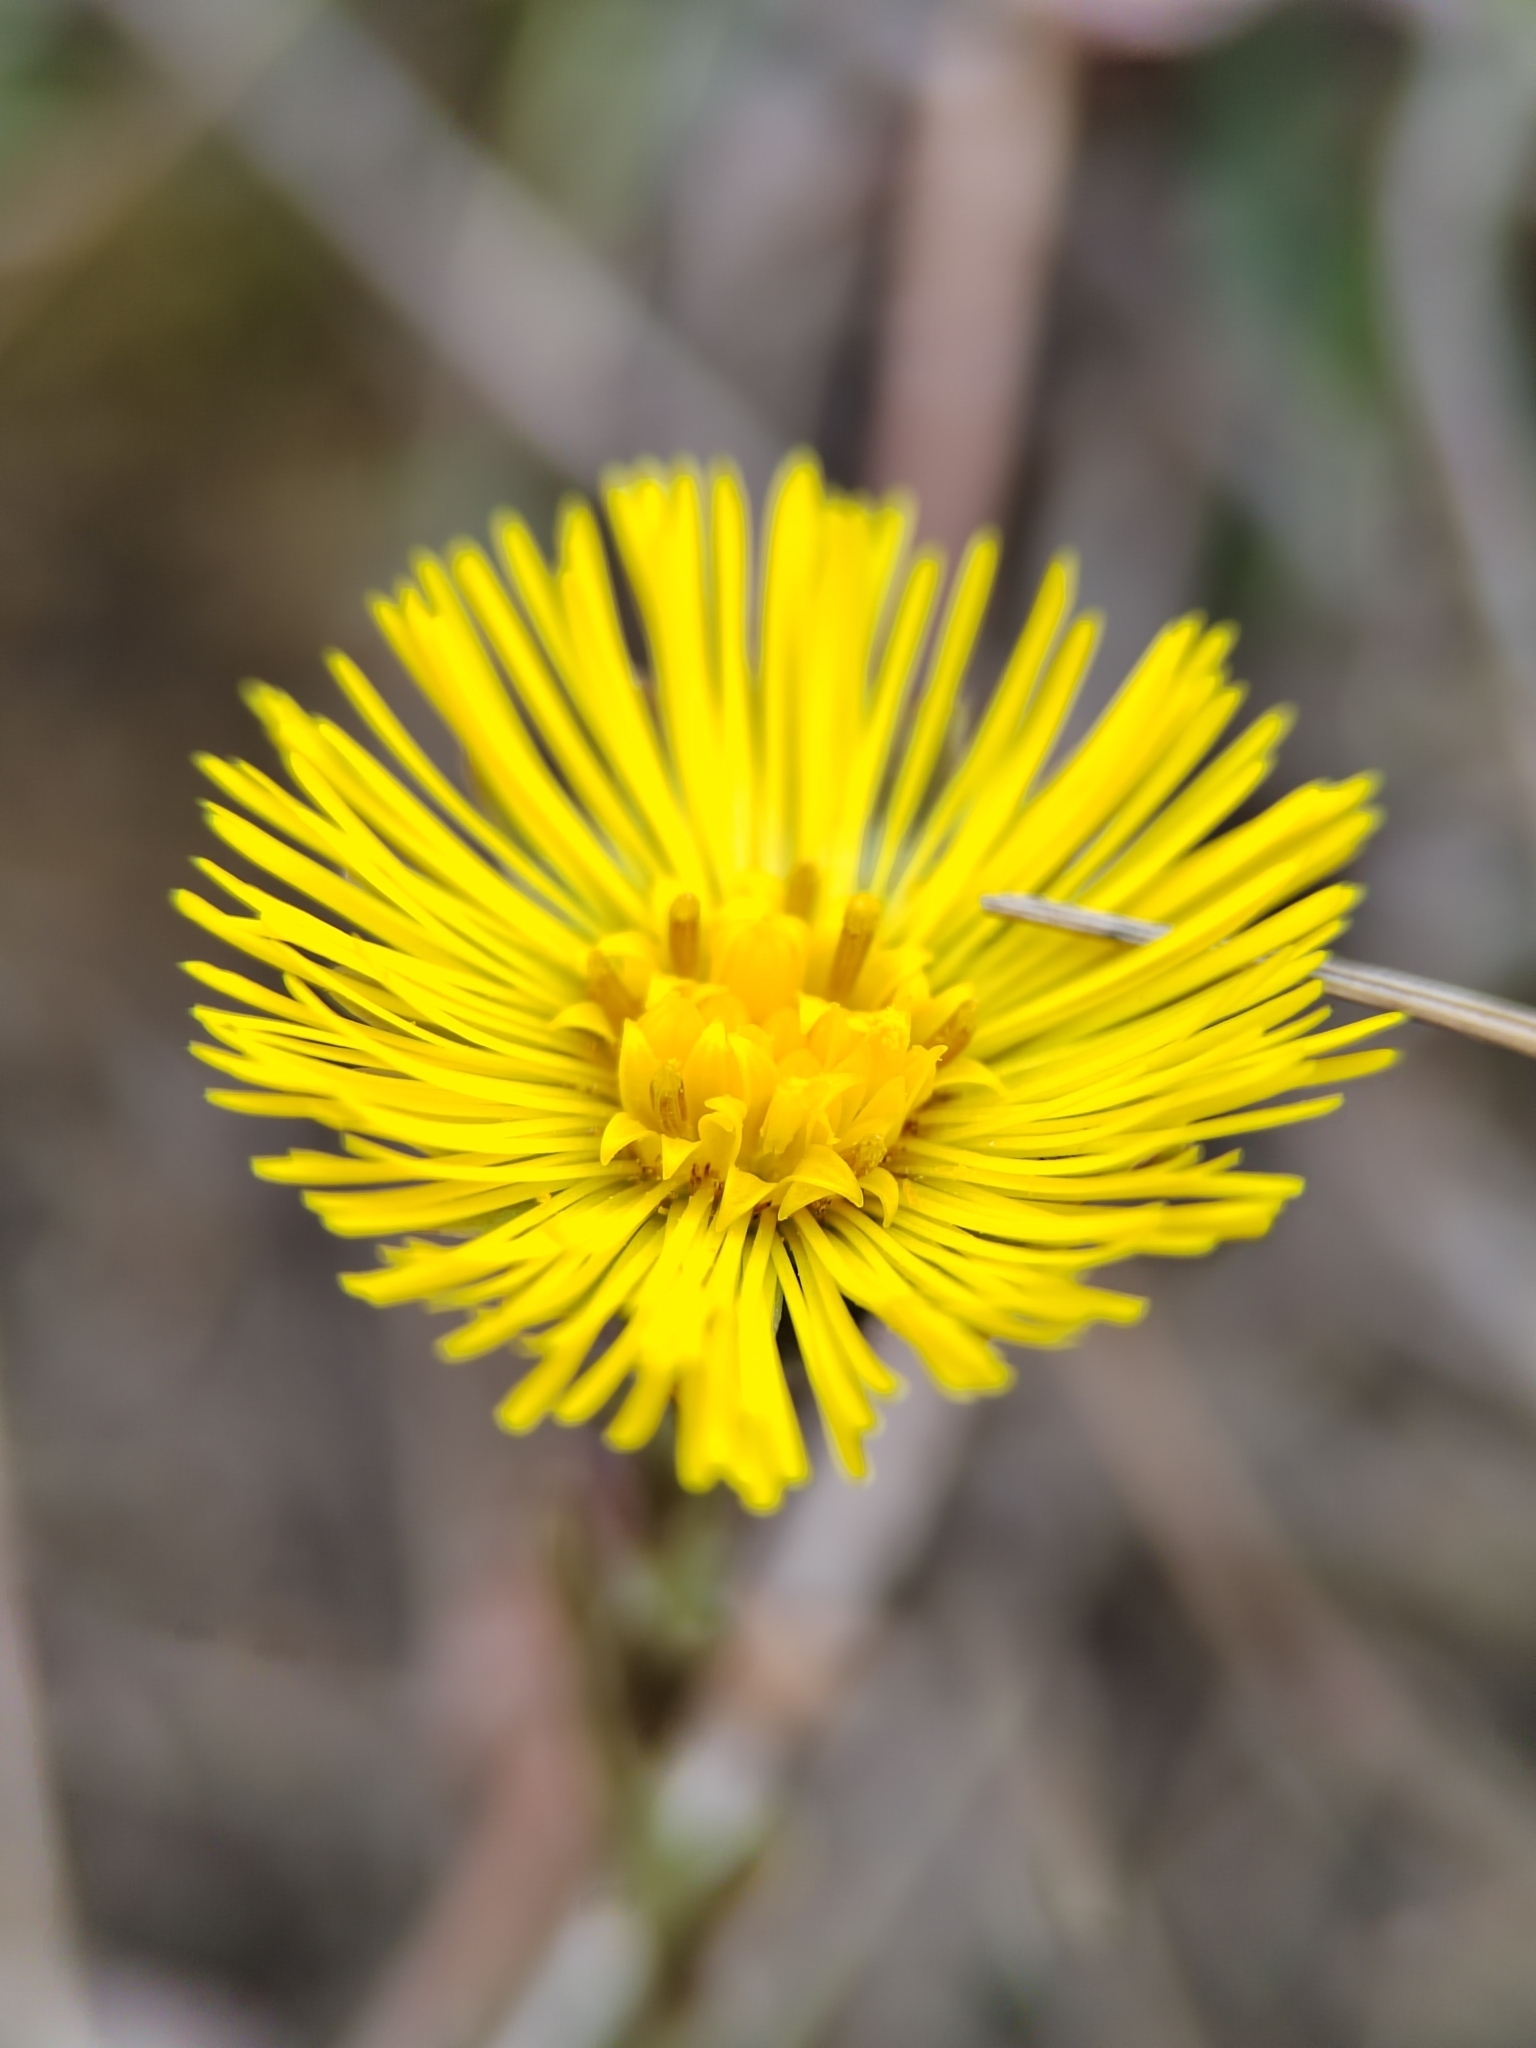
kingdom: Plantae
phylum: Tracheophyta
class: Magnoliopsida
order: Asterales
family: Asteraceae
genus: Tussilago
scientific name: Tussilago farfara
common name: Coltsfoot
